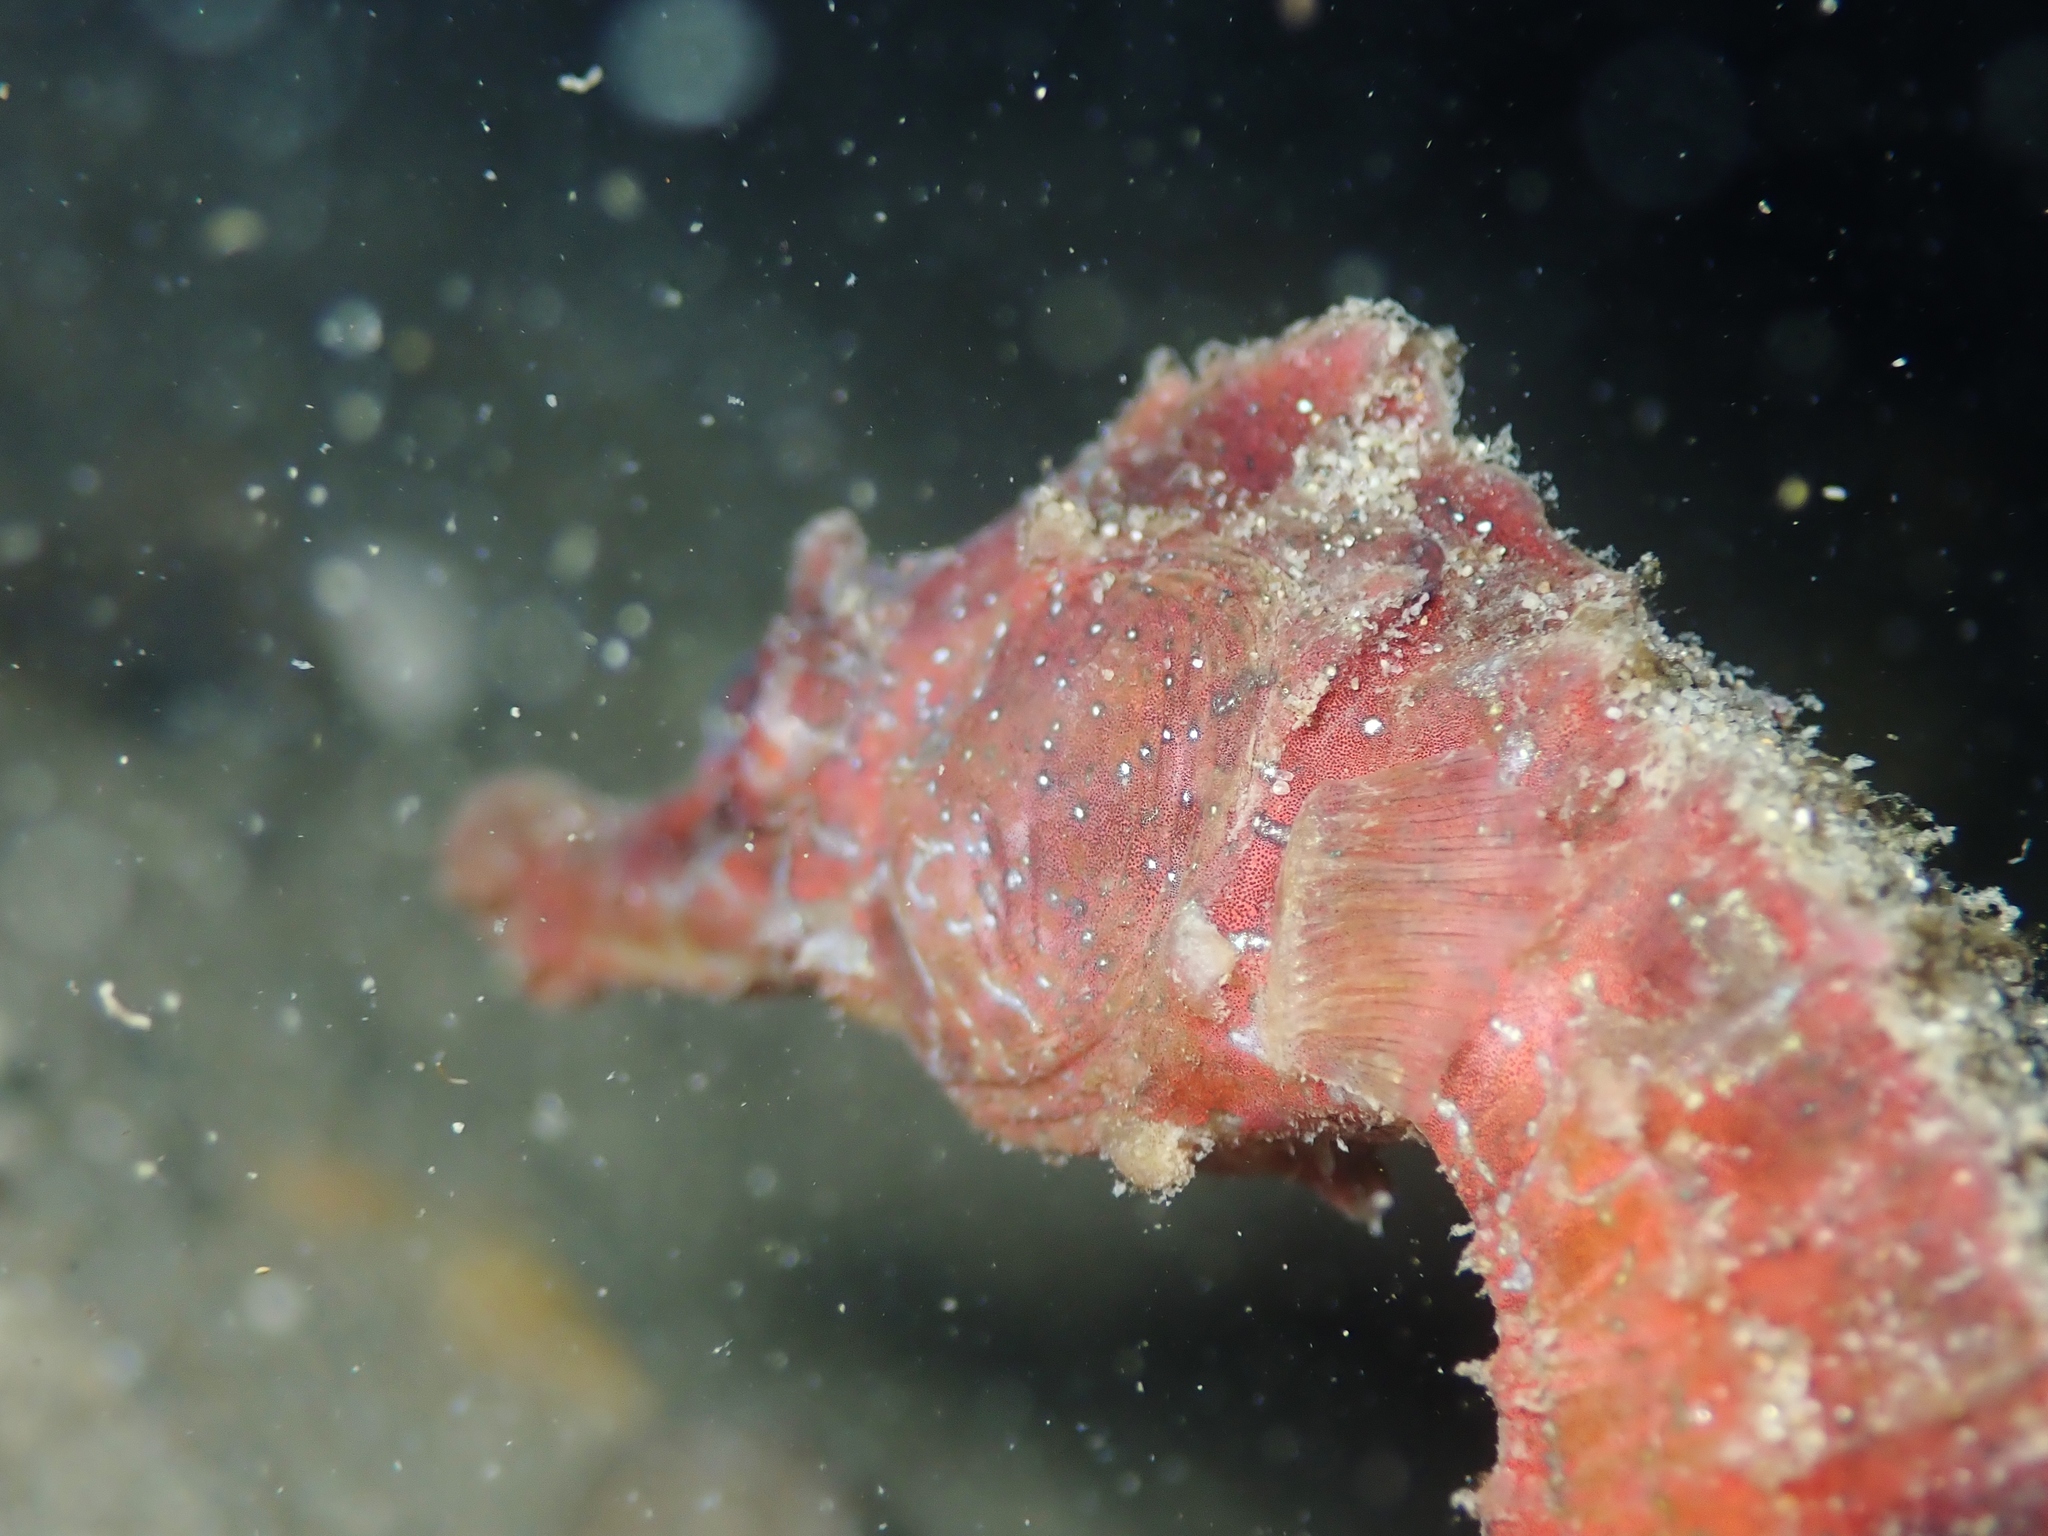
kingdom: Animalia
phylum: Chordata
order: Syngnathiformes
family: Syngnathidae
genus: Hippocampus
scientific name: Hippocampus abdominalis
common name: Big-belly seahorse
